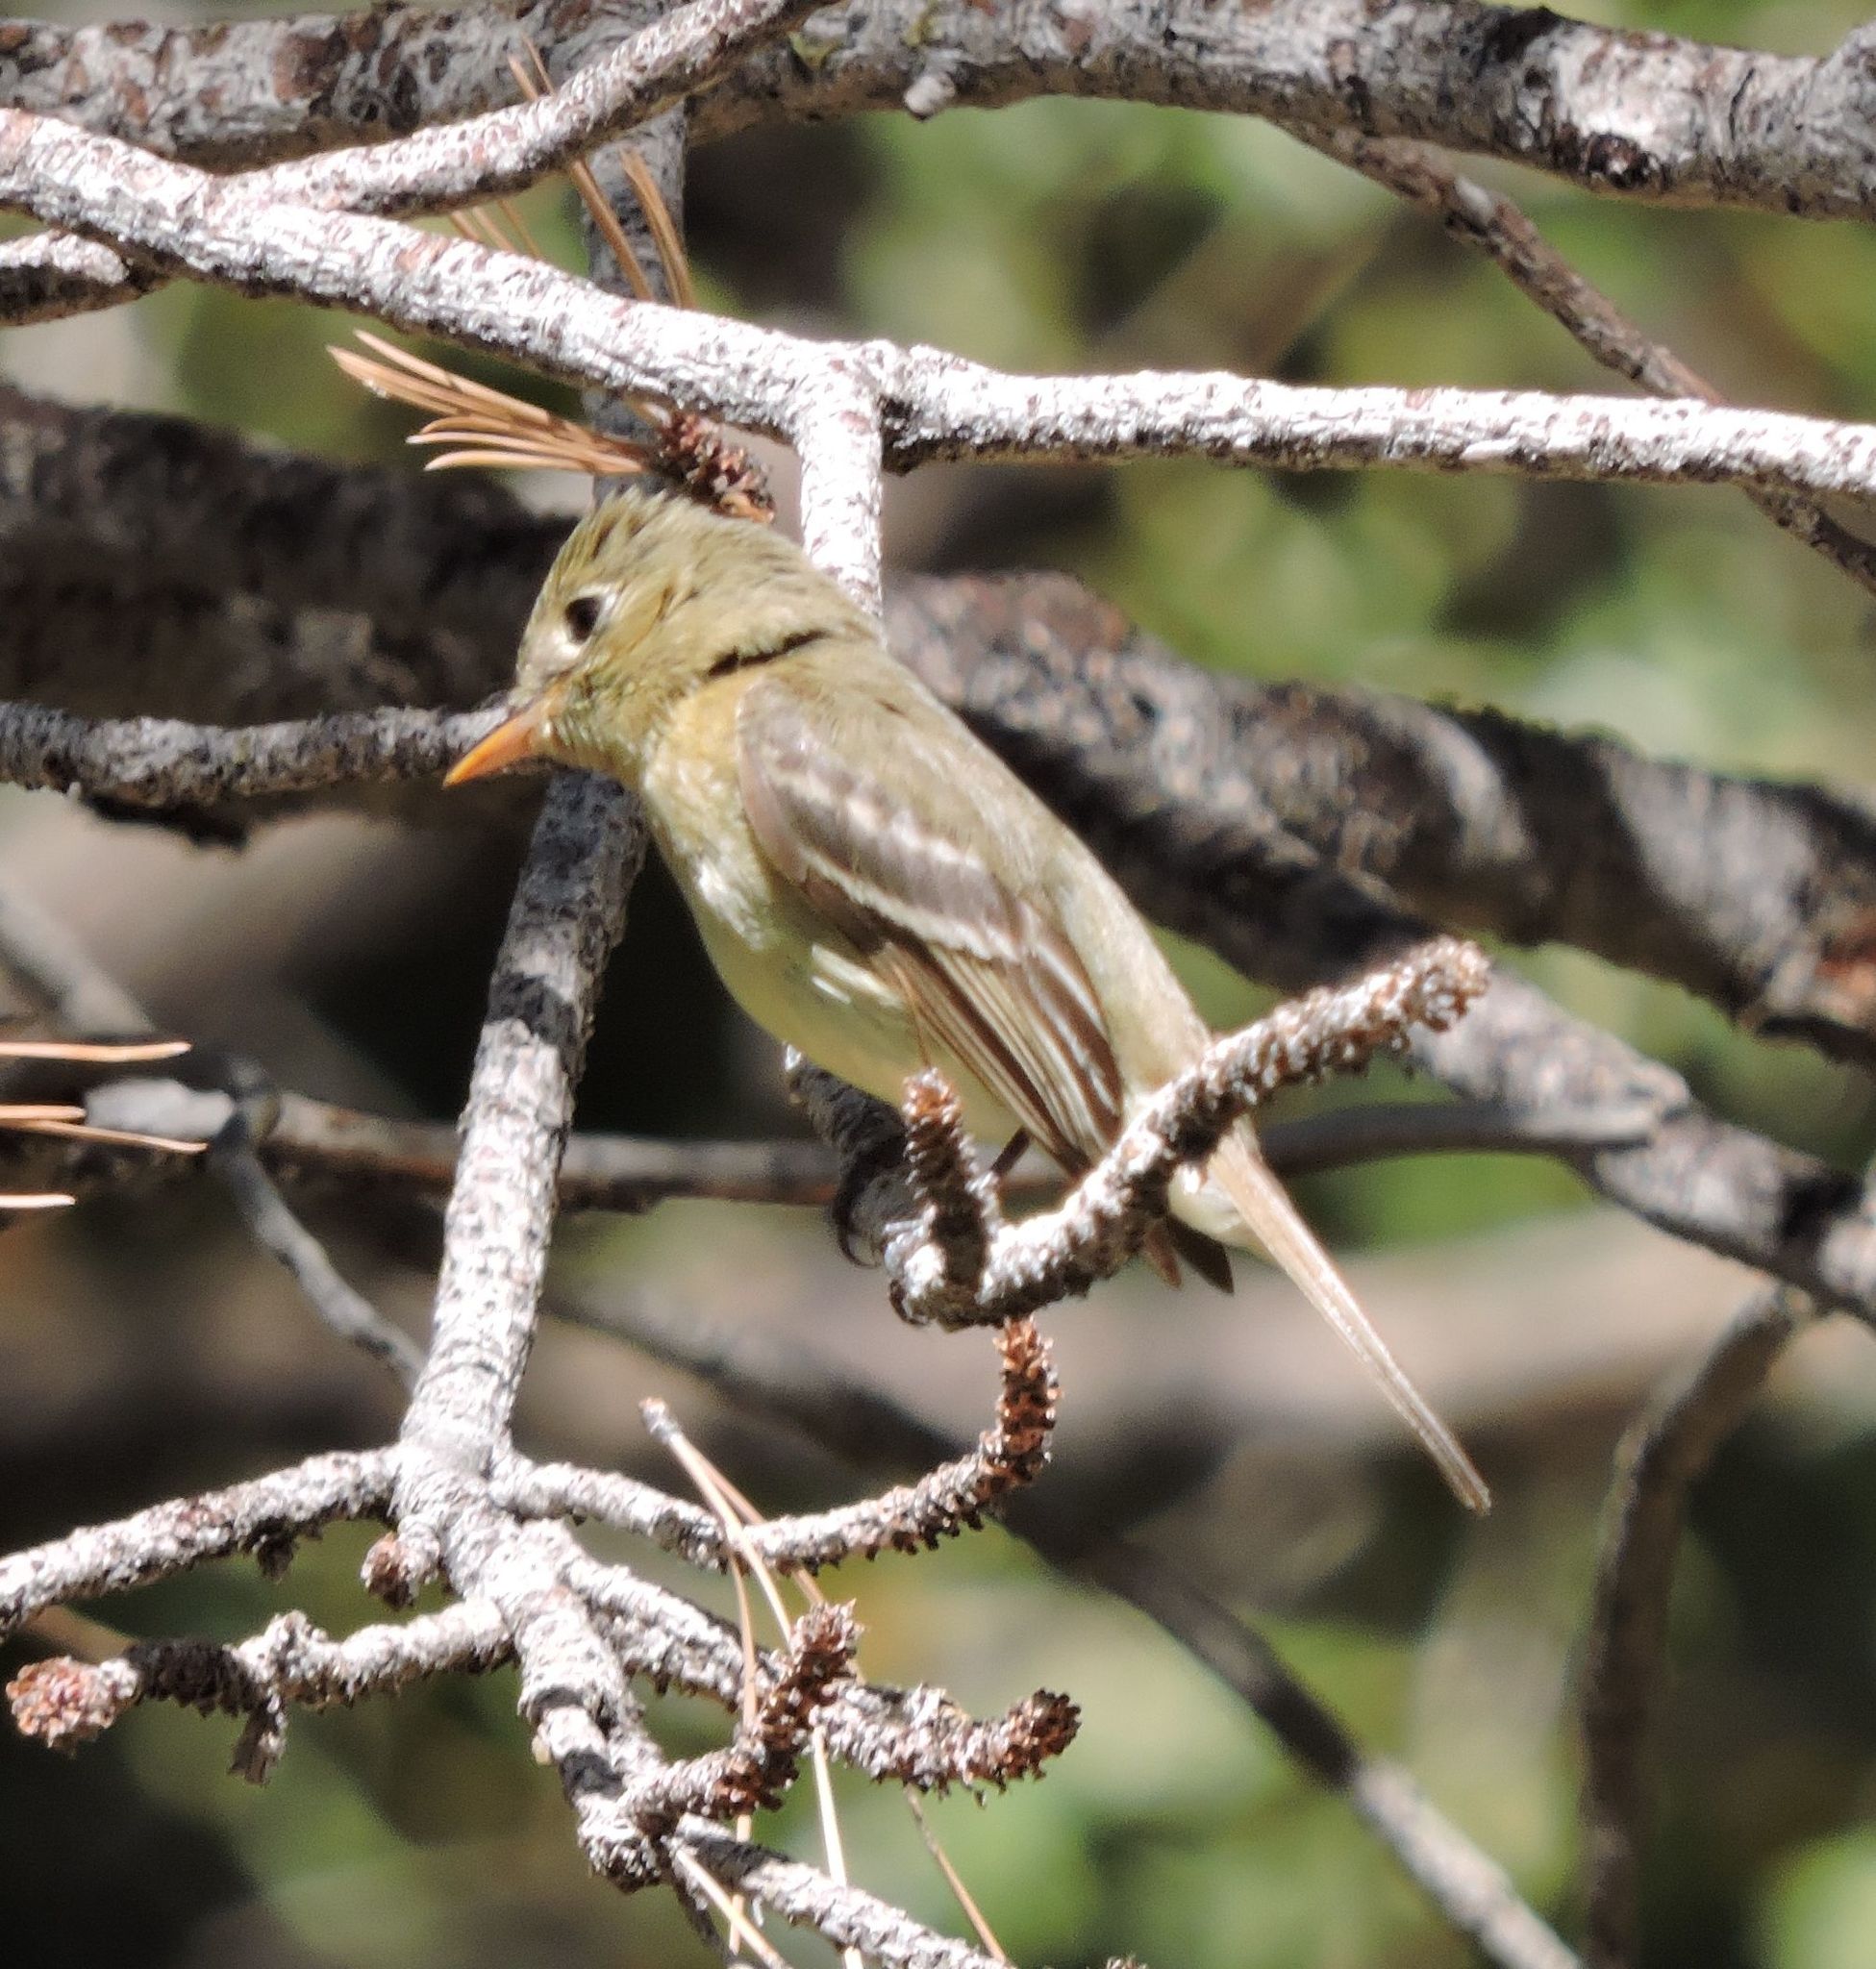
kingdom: Animalia
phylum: Chordata
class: Aves
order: Passeriformes
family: Tyrannidae
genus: Empidonax
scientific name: Empidonax difficilis
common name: Pacific-slope flycatcher
